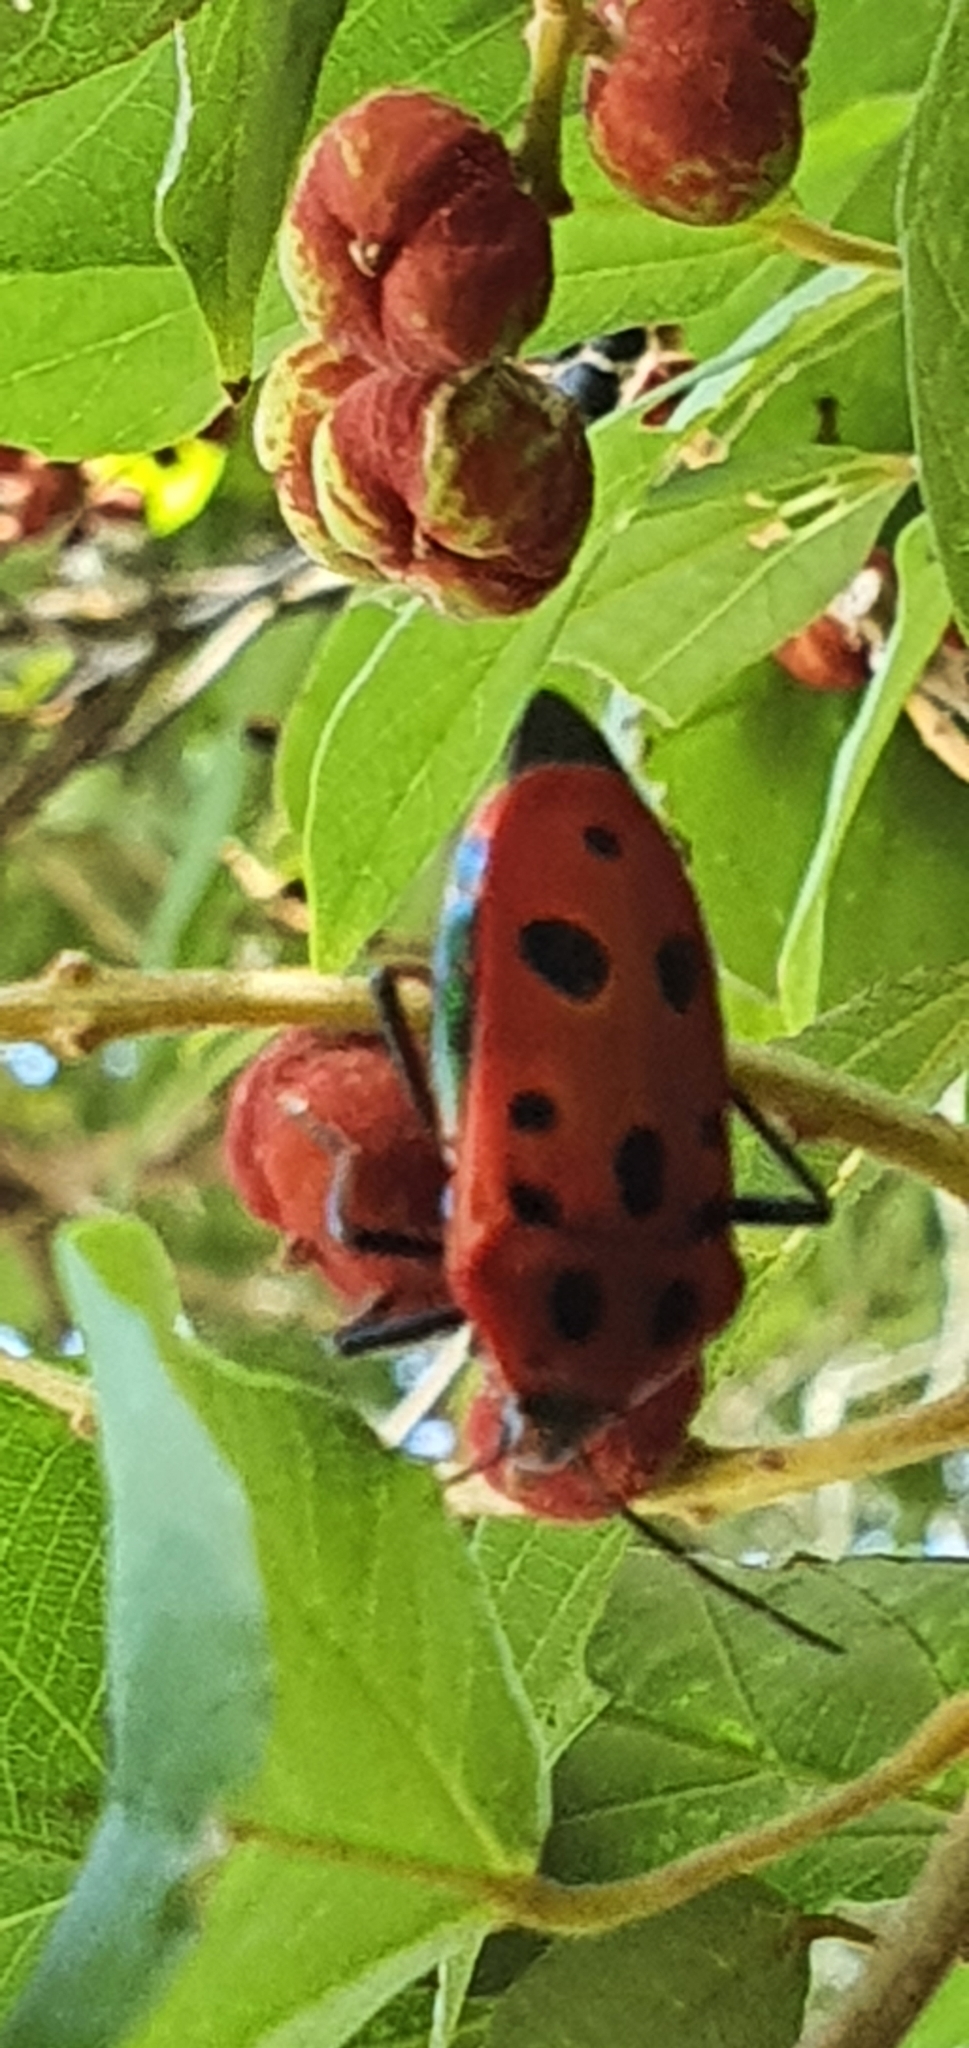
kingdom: Animalia
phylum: Arthropoda
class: Insecta
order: Hemiptera
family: Scutelleridae
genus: Cantao
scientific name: Cantao
